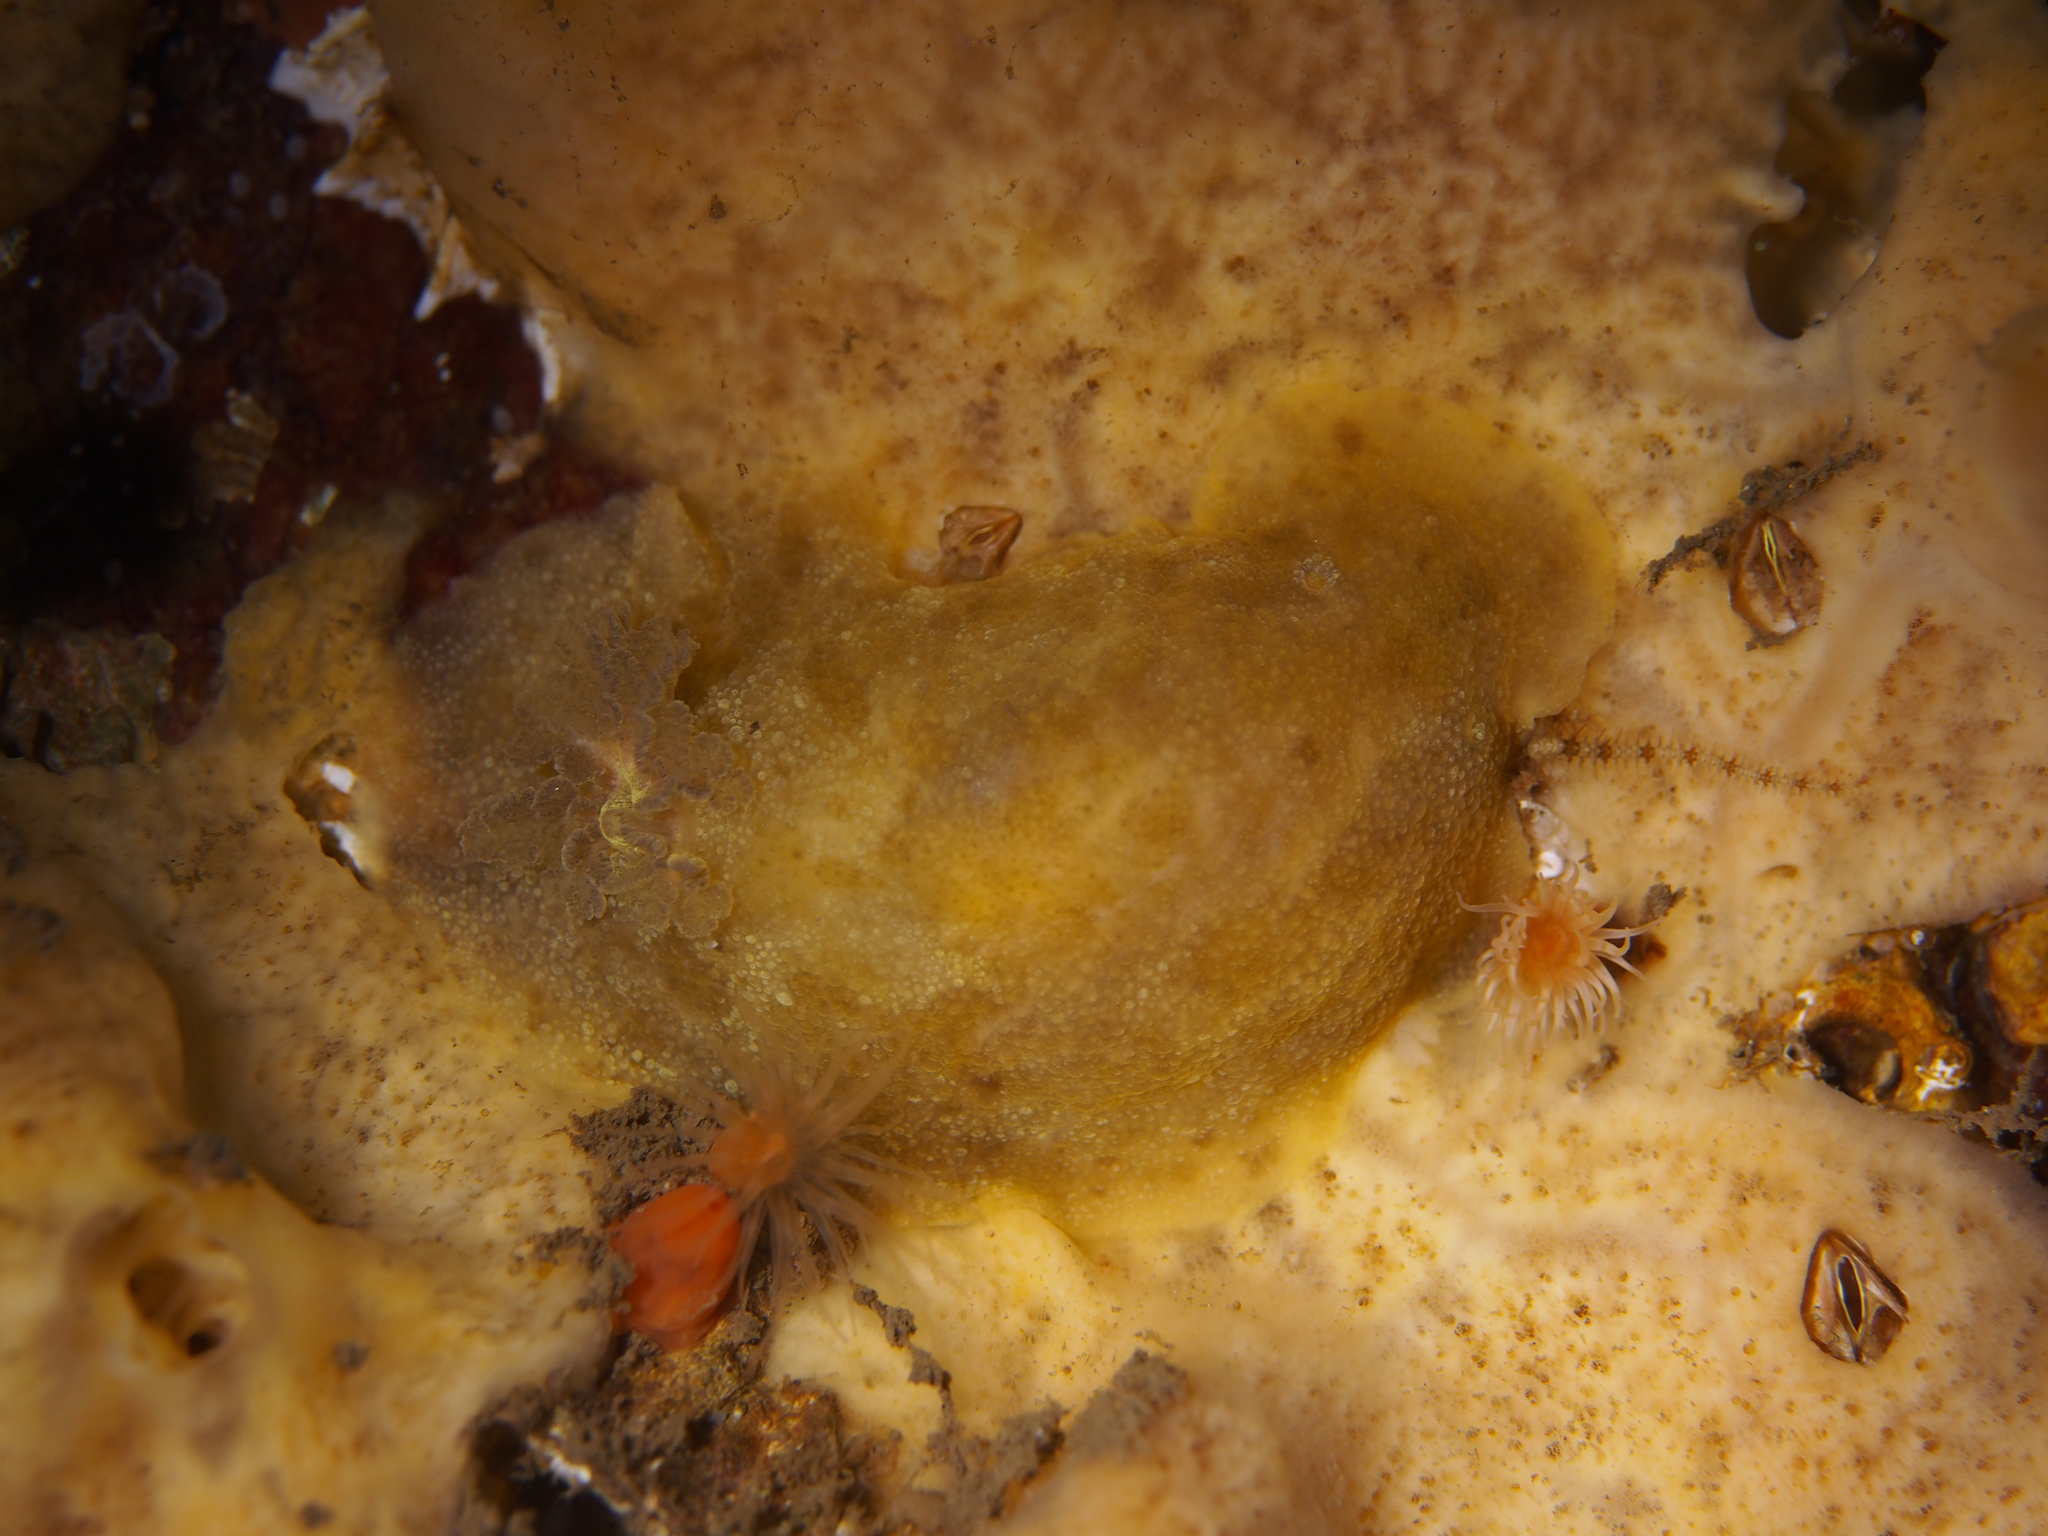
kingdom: Animalia
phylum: Mollusca
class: Gastropoda
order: Nudibranchia
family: Dorididae
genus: Doris
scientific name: Doris pseudoargus
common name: Sea lemon
